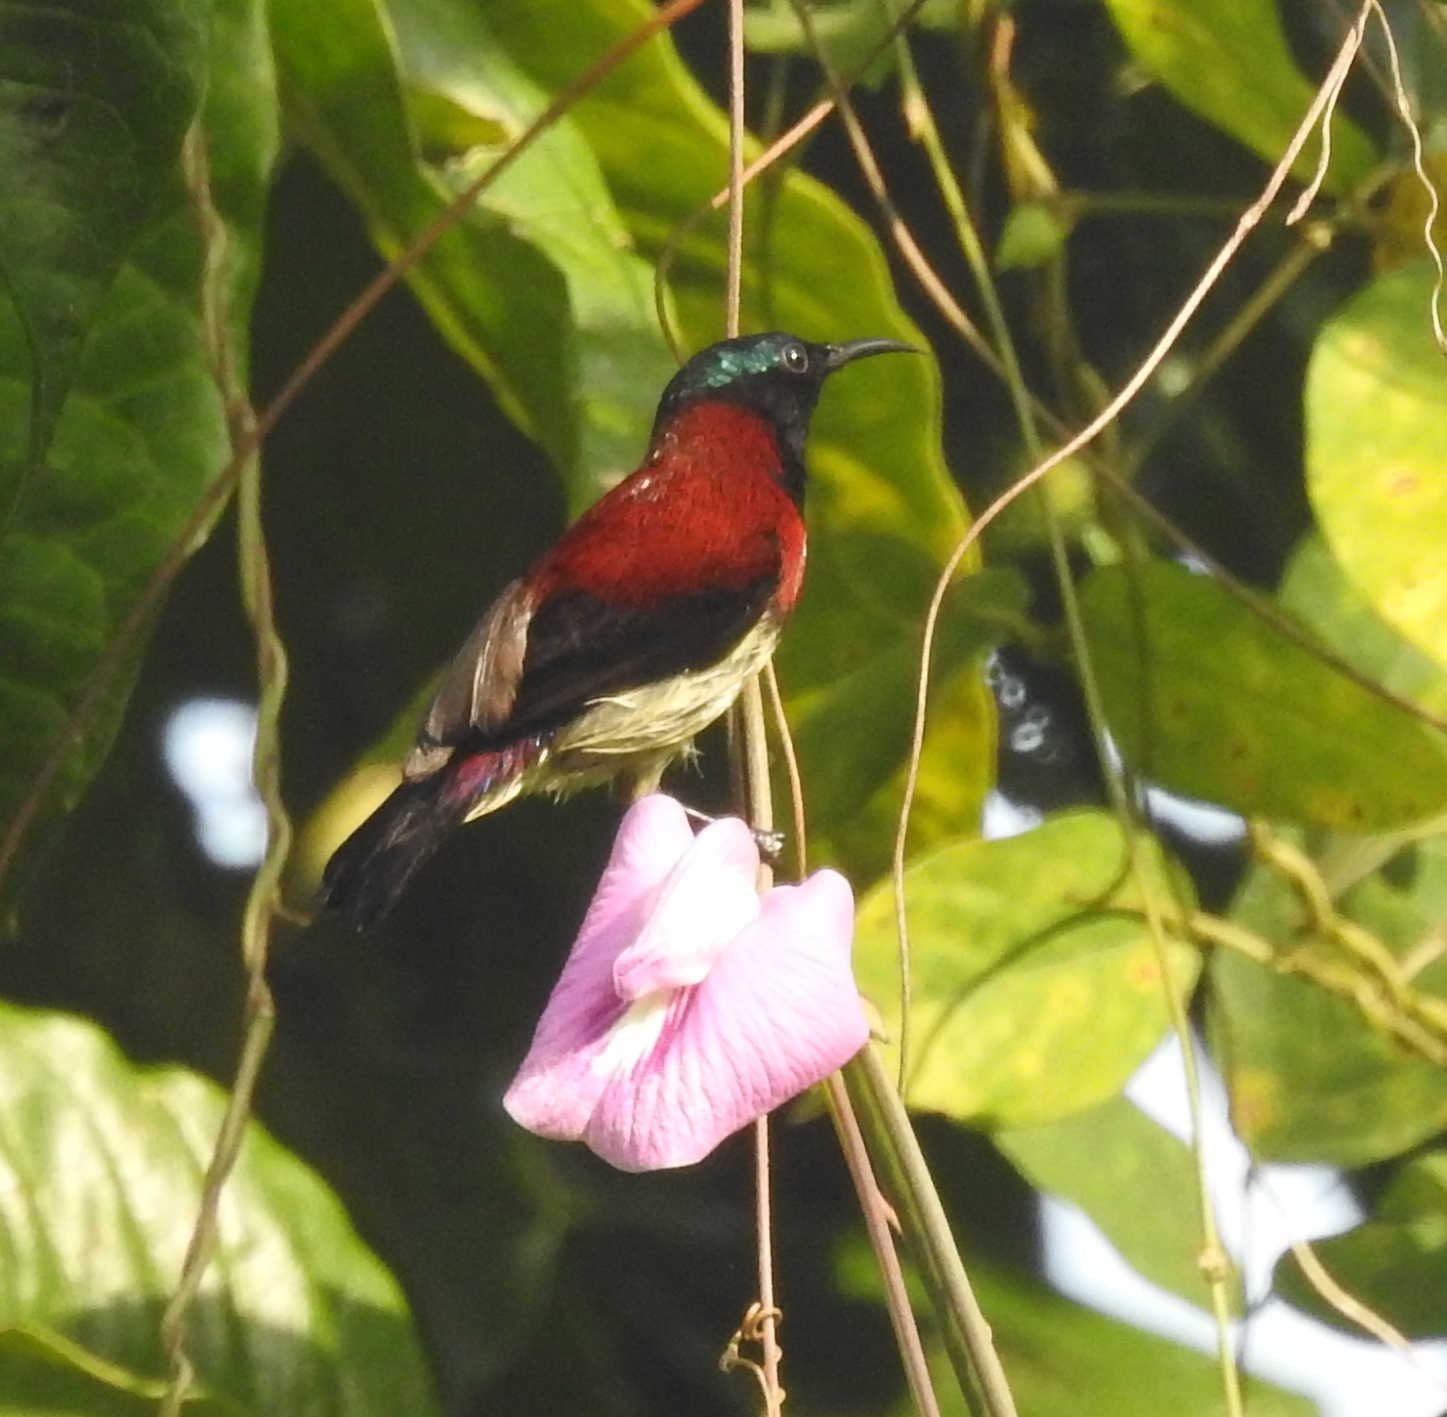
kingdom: Animalia
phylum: Chordata
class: Aves
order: Passeriformes
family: Nectariniidae
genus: Leptocoma
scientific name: Leptocoma minima
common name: Crimson-backed sunbird
